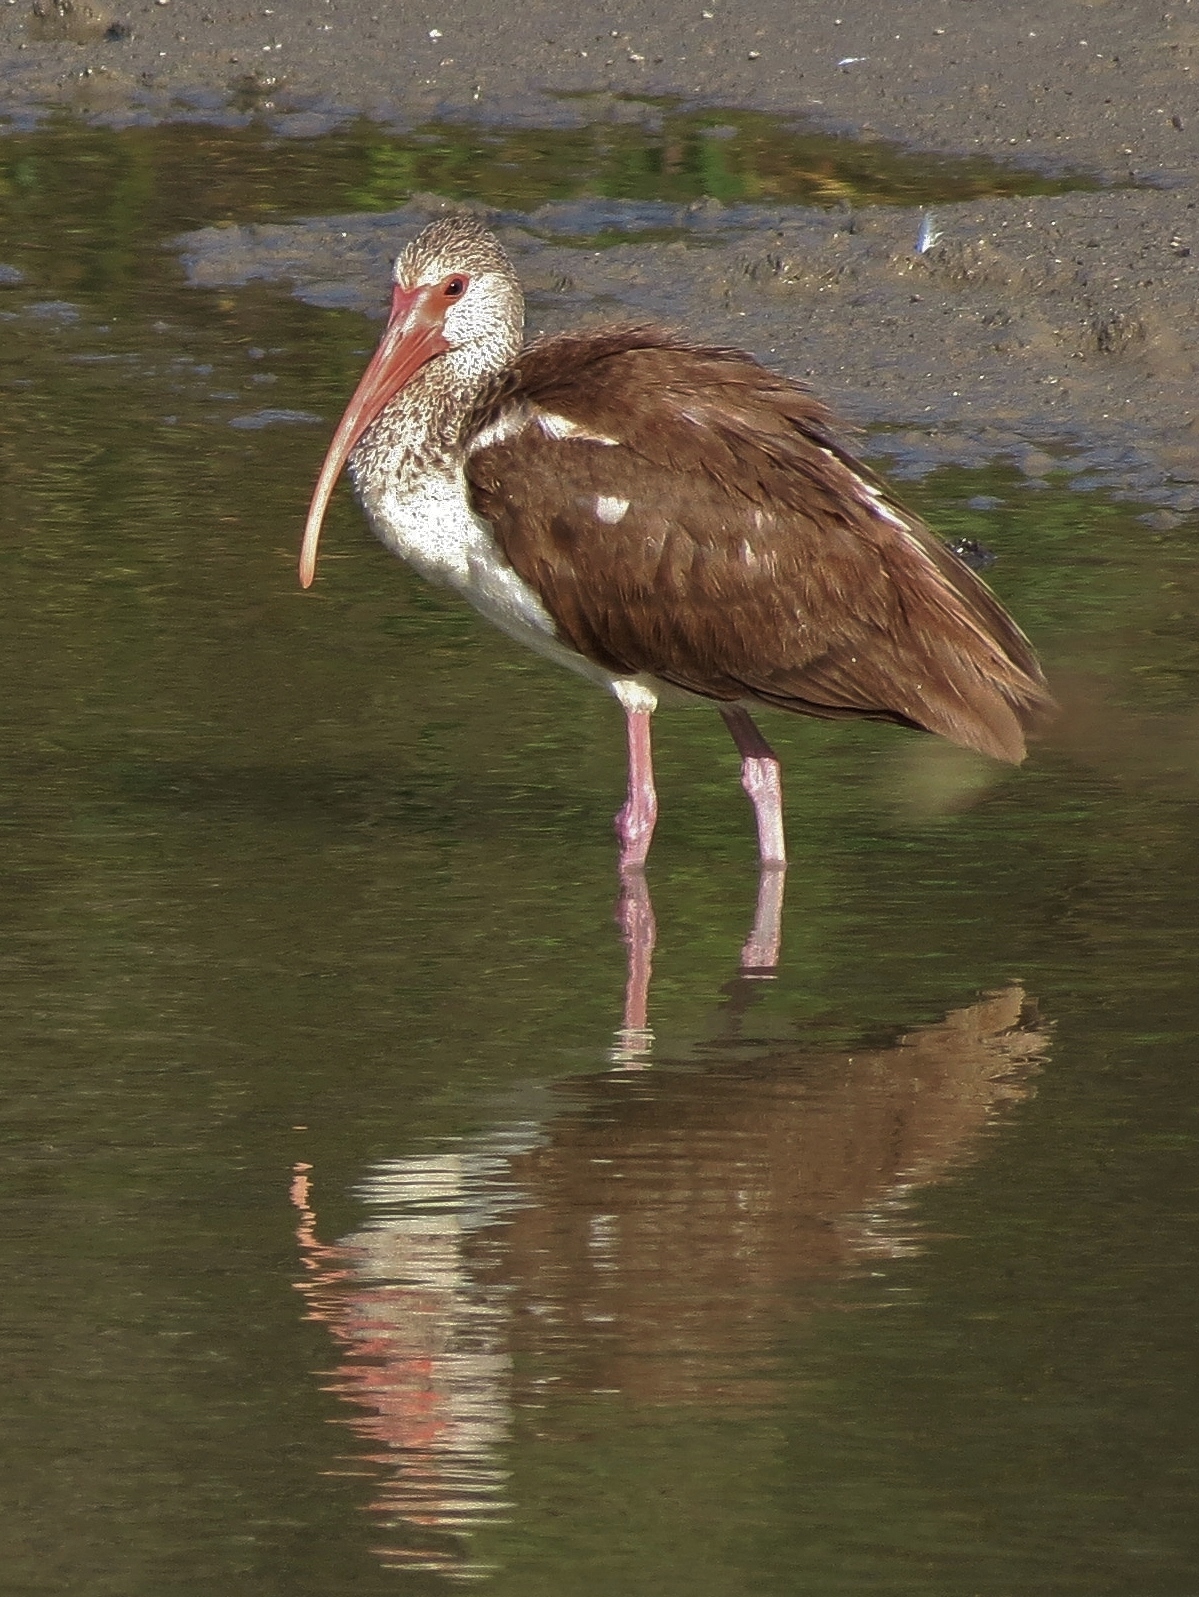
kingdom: Animalia
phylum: Chordata
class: Aves
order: Pelecaniformes
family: Threskiornithidae
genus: Eudocimus
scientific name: Eudocimus albus
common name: White ibis
